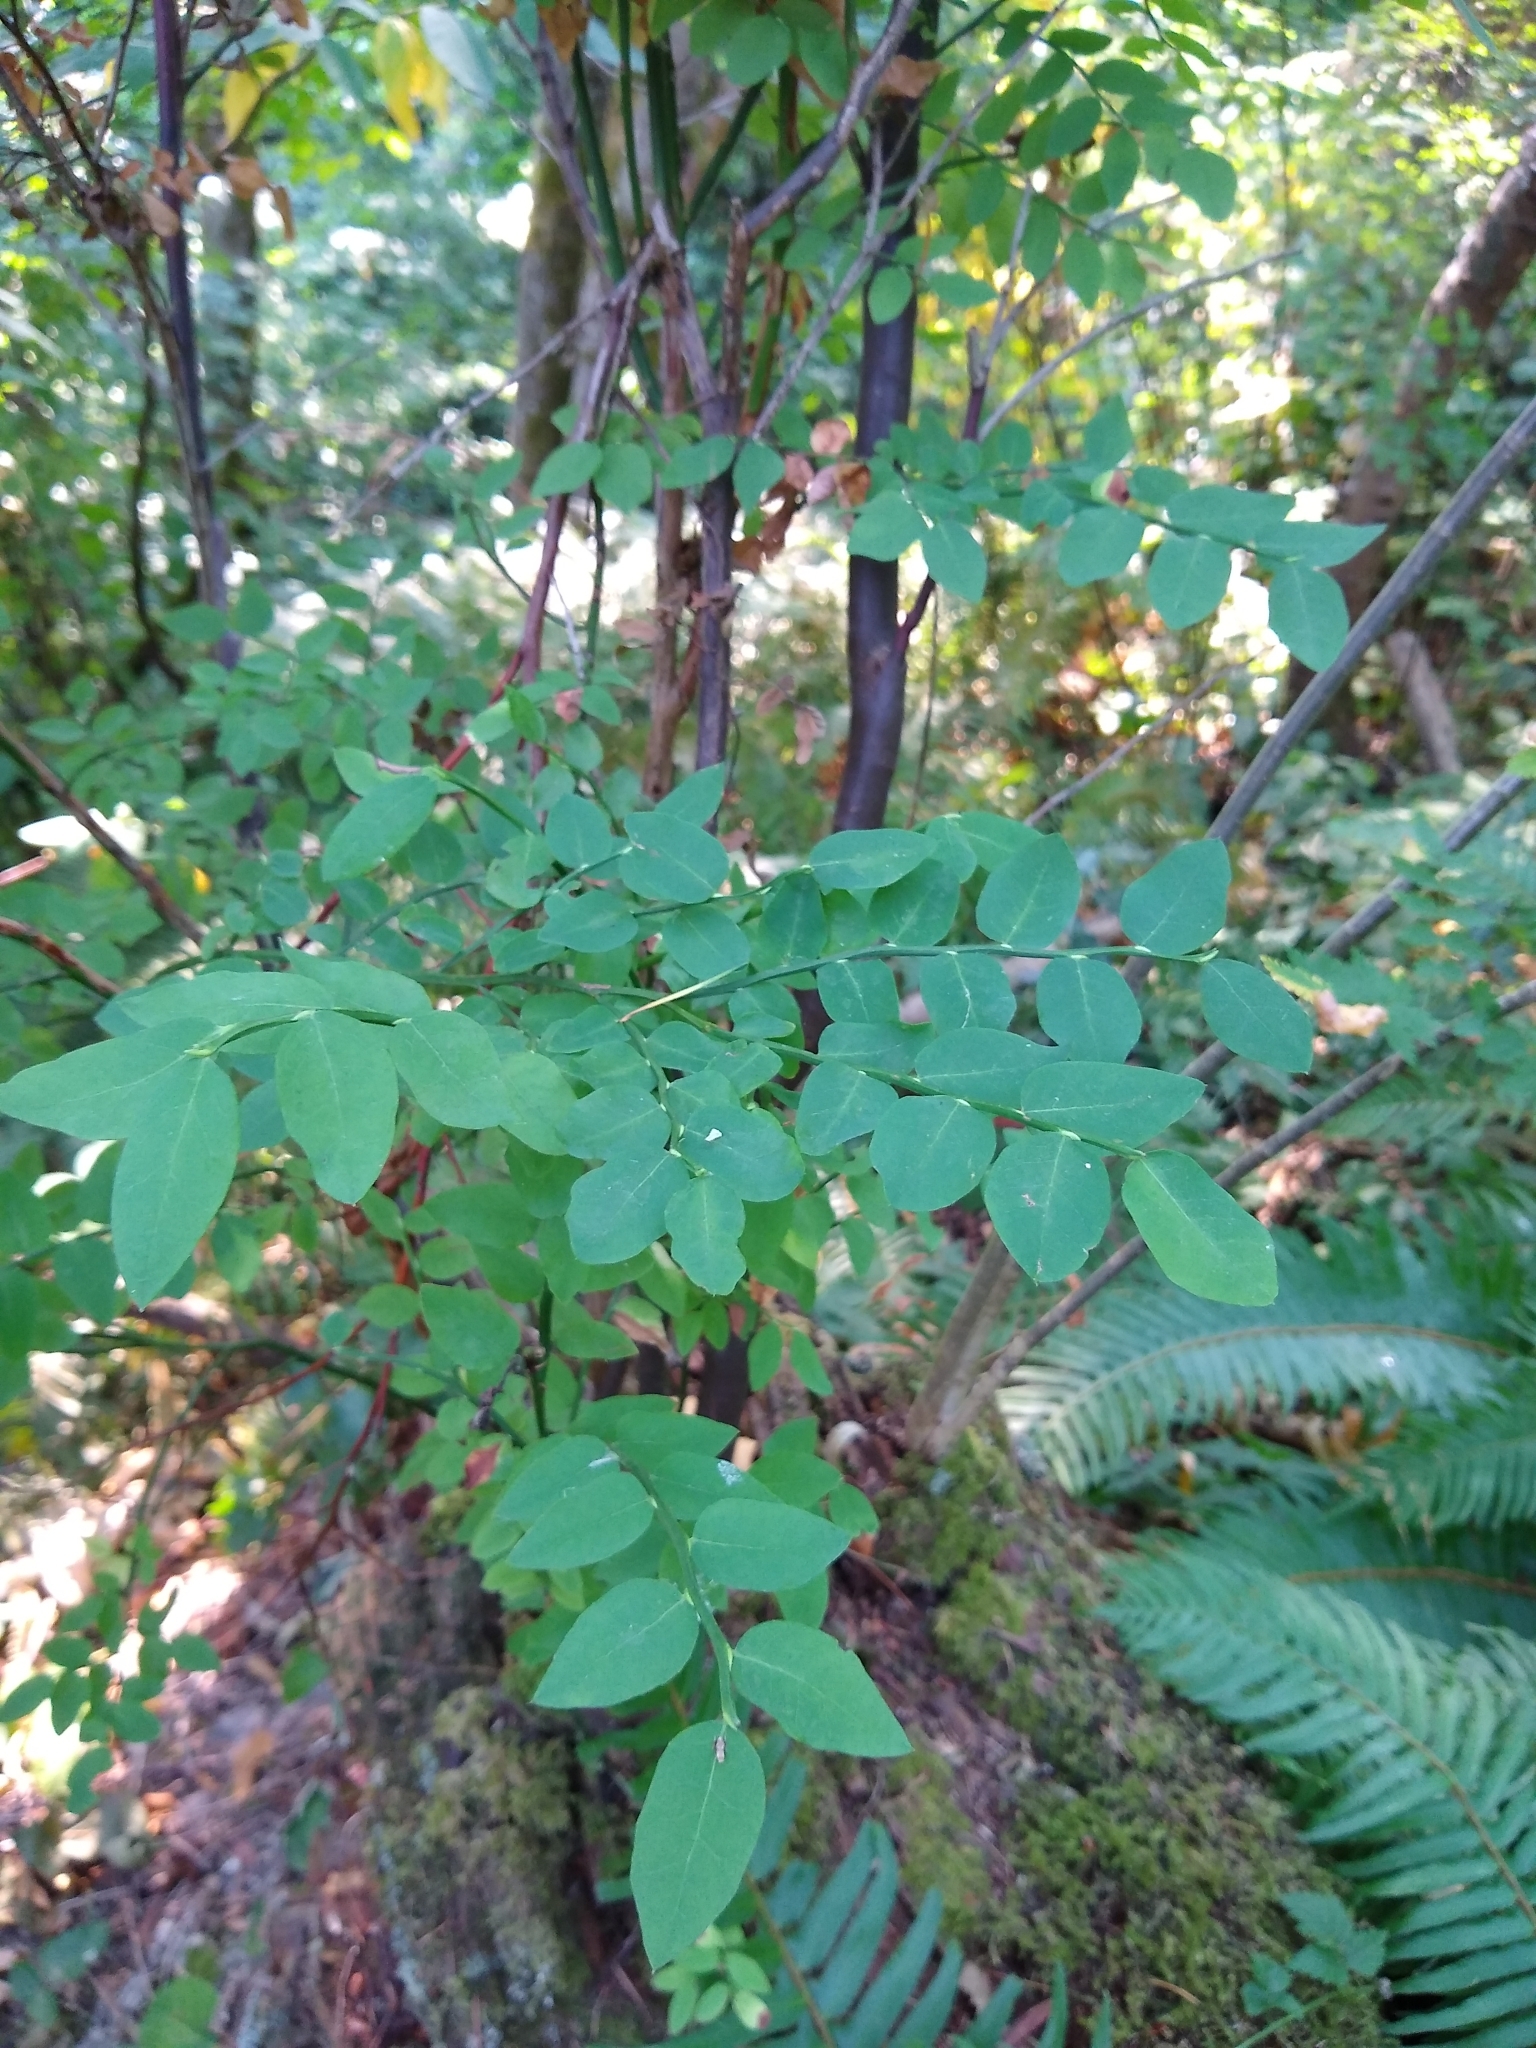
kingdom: Plantae
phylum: Tracheophyta
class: Magnoliopsida
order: Ericales
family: Ericaceae
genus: Vaccinium
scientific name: Vaccinium parvifolium
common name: Red-huckleberry
